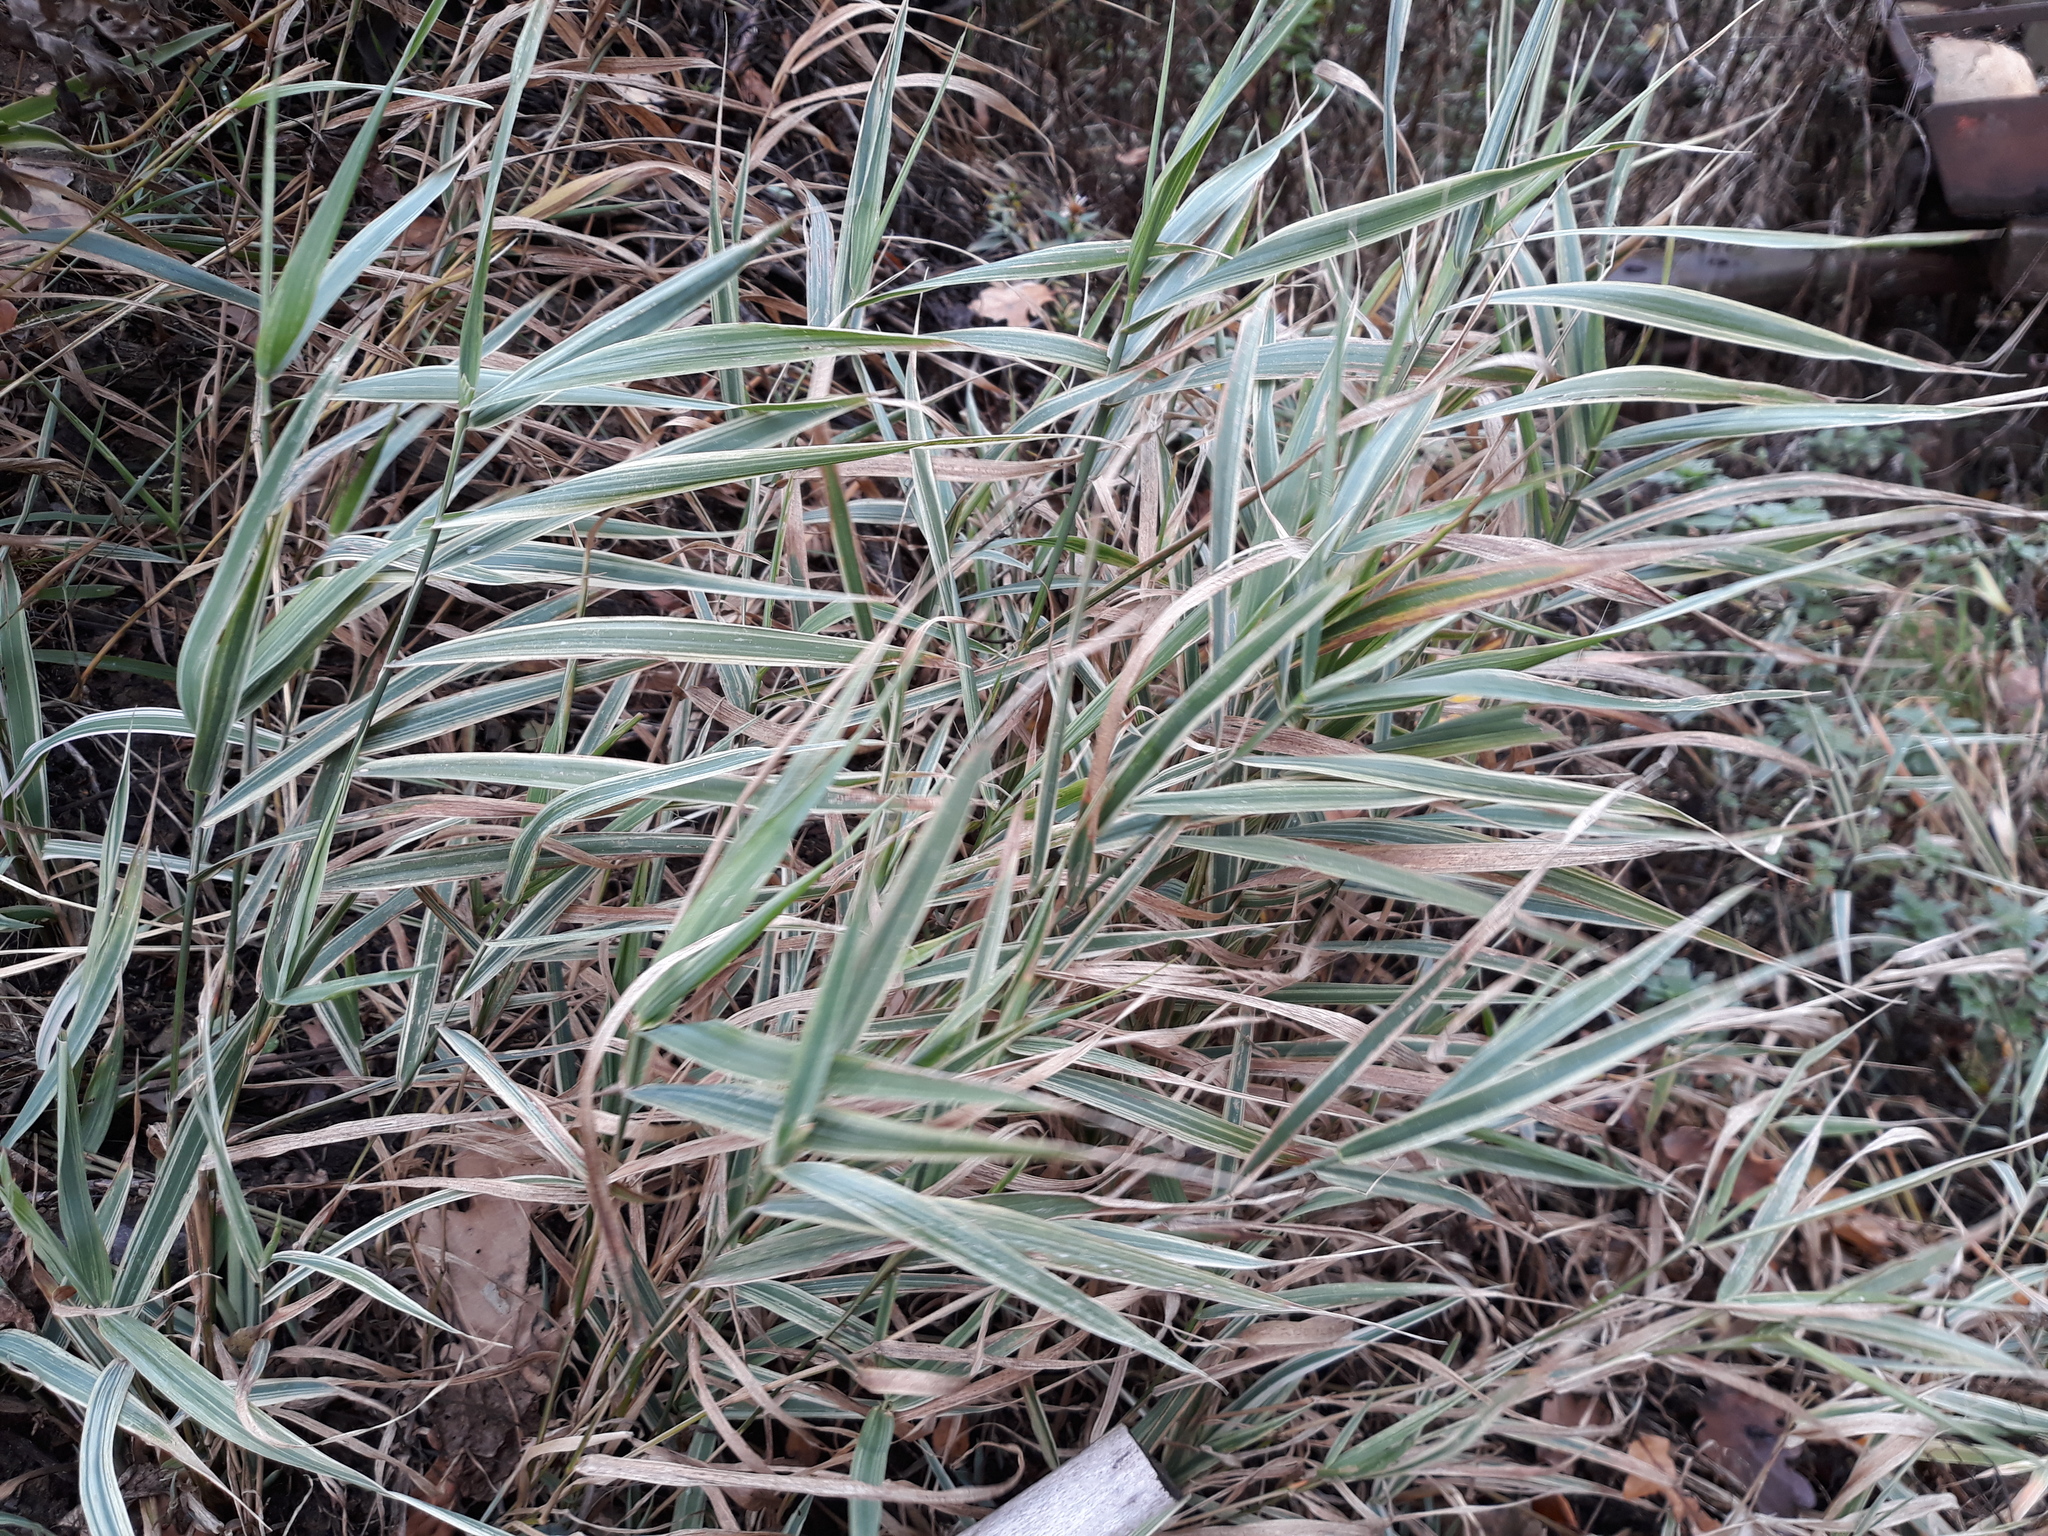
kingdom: Plantae
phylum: Tracheophyta
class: Liliopsida
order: Poales
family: Poaceae
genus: Phalaris
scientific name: Phalaris arundinacea
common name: Reed canary-grass
